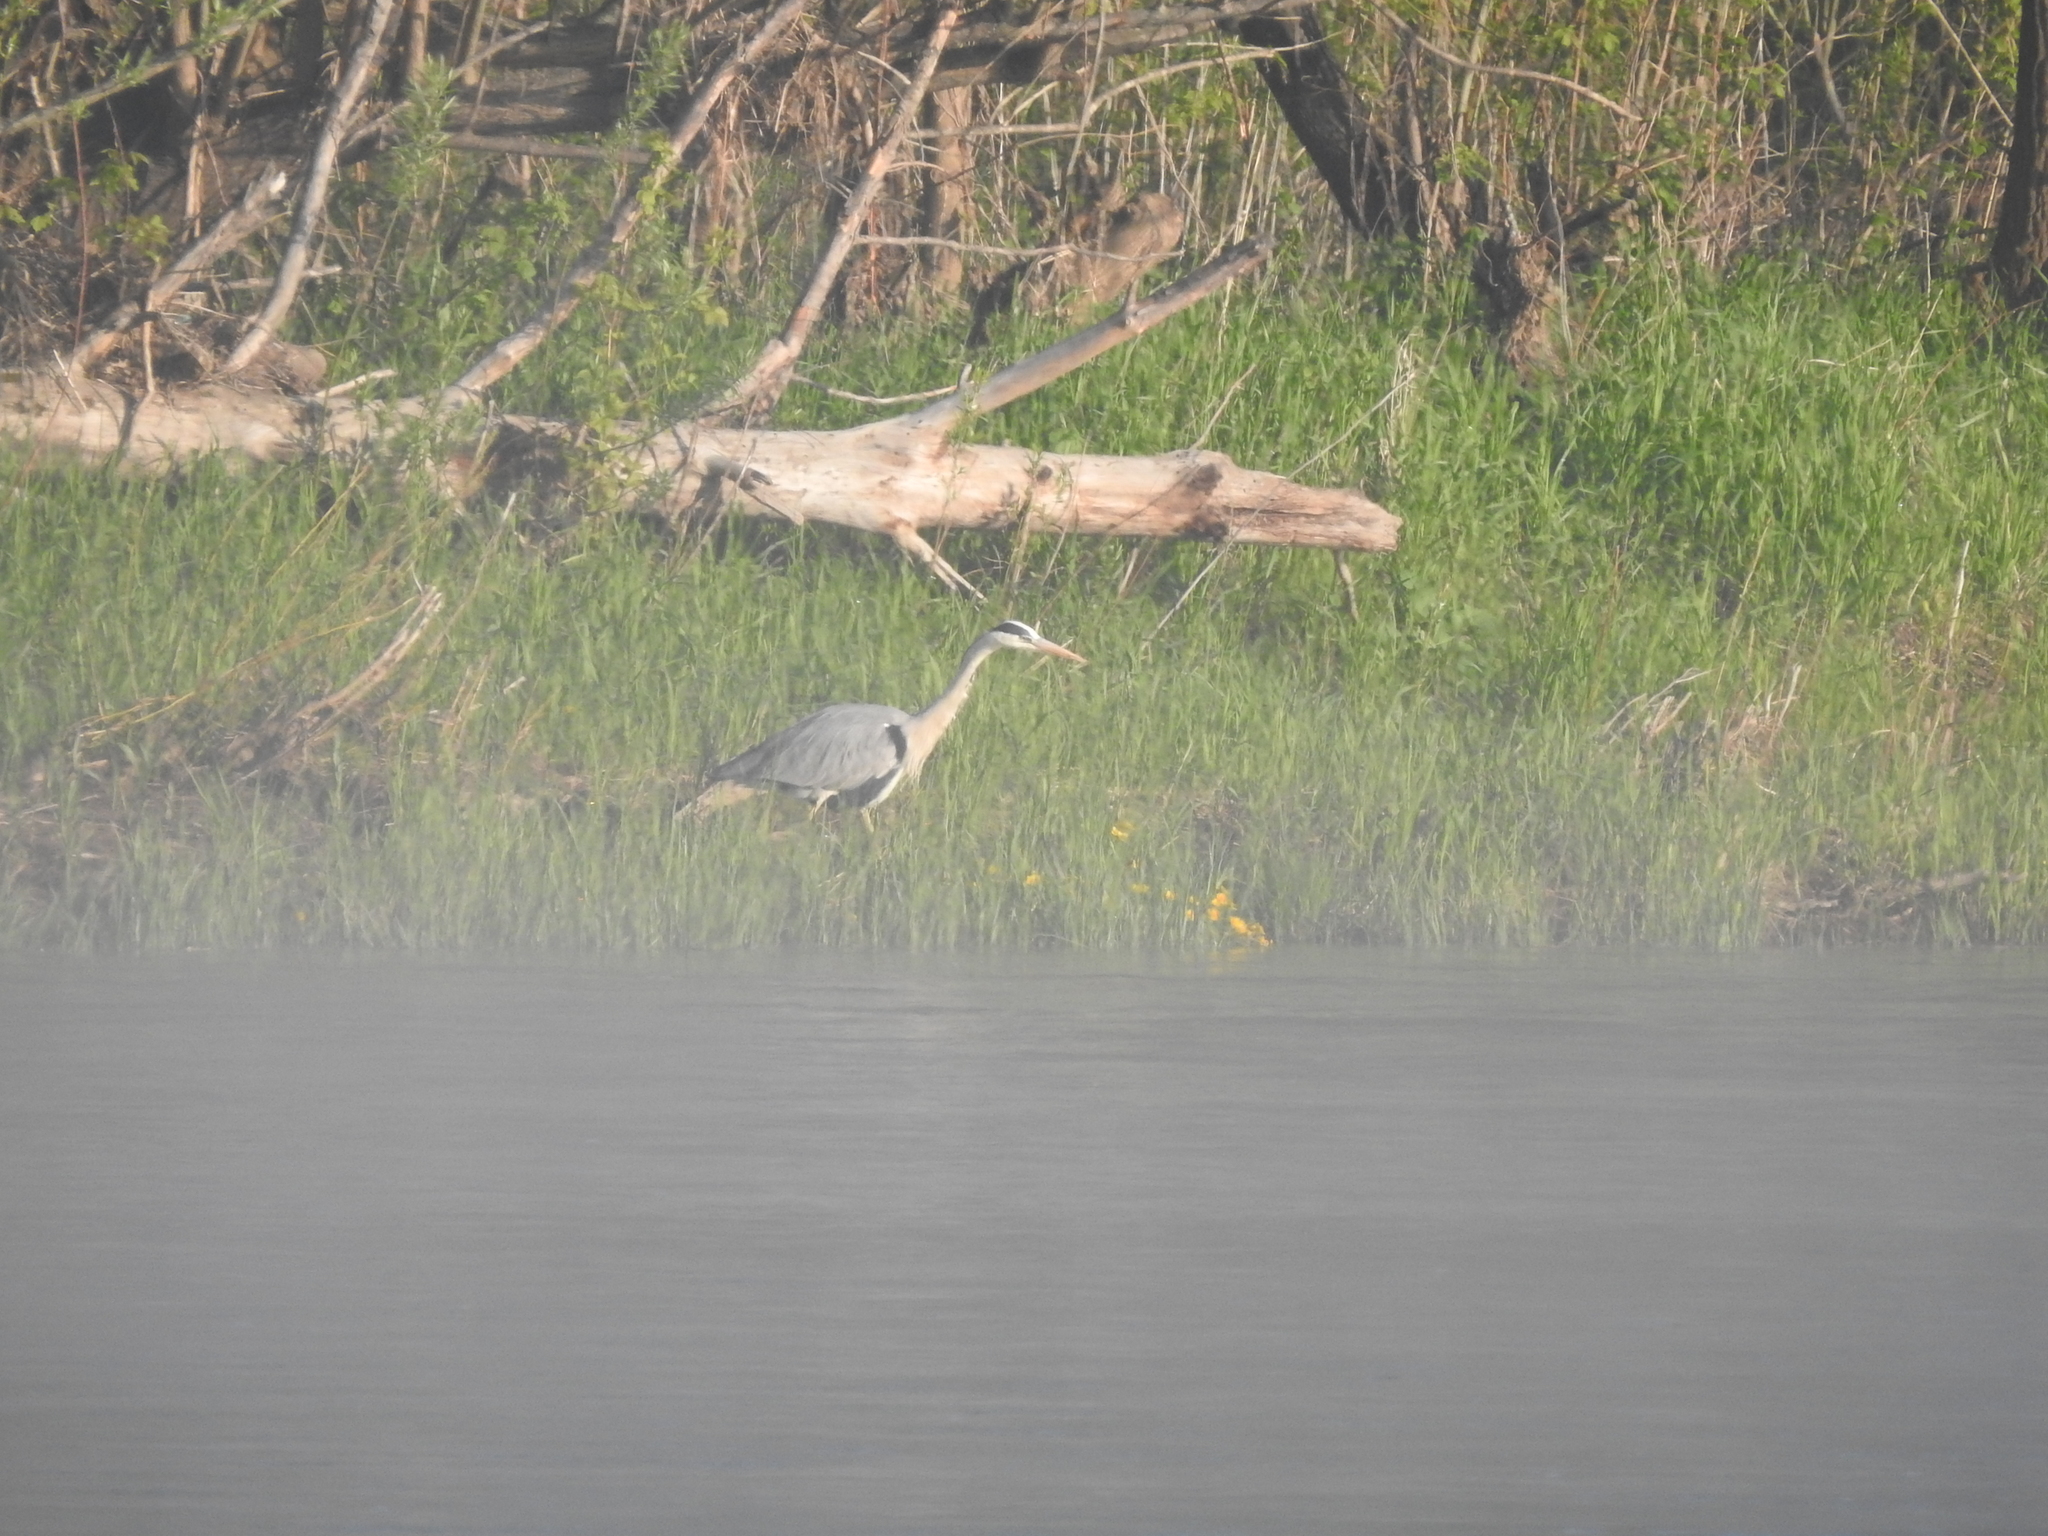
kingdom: Animalia
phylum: Chordata
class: Aves
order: Pelecaniformes
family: Ardeidae
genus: Ardea
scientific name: Ardea cinerea
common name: Grey heron
